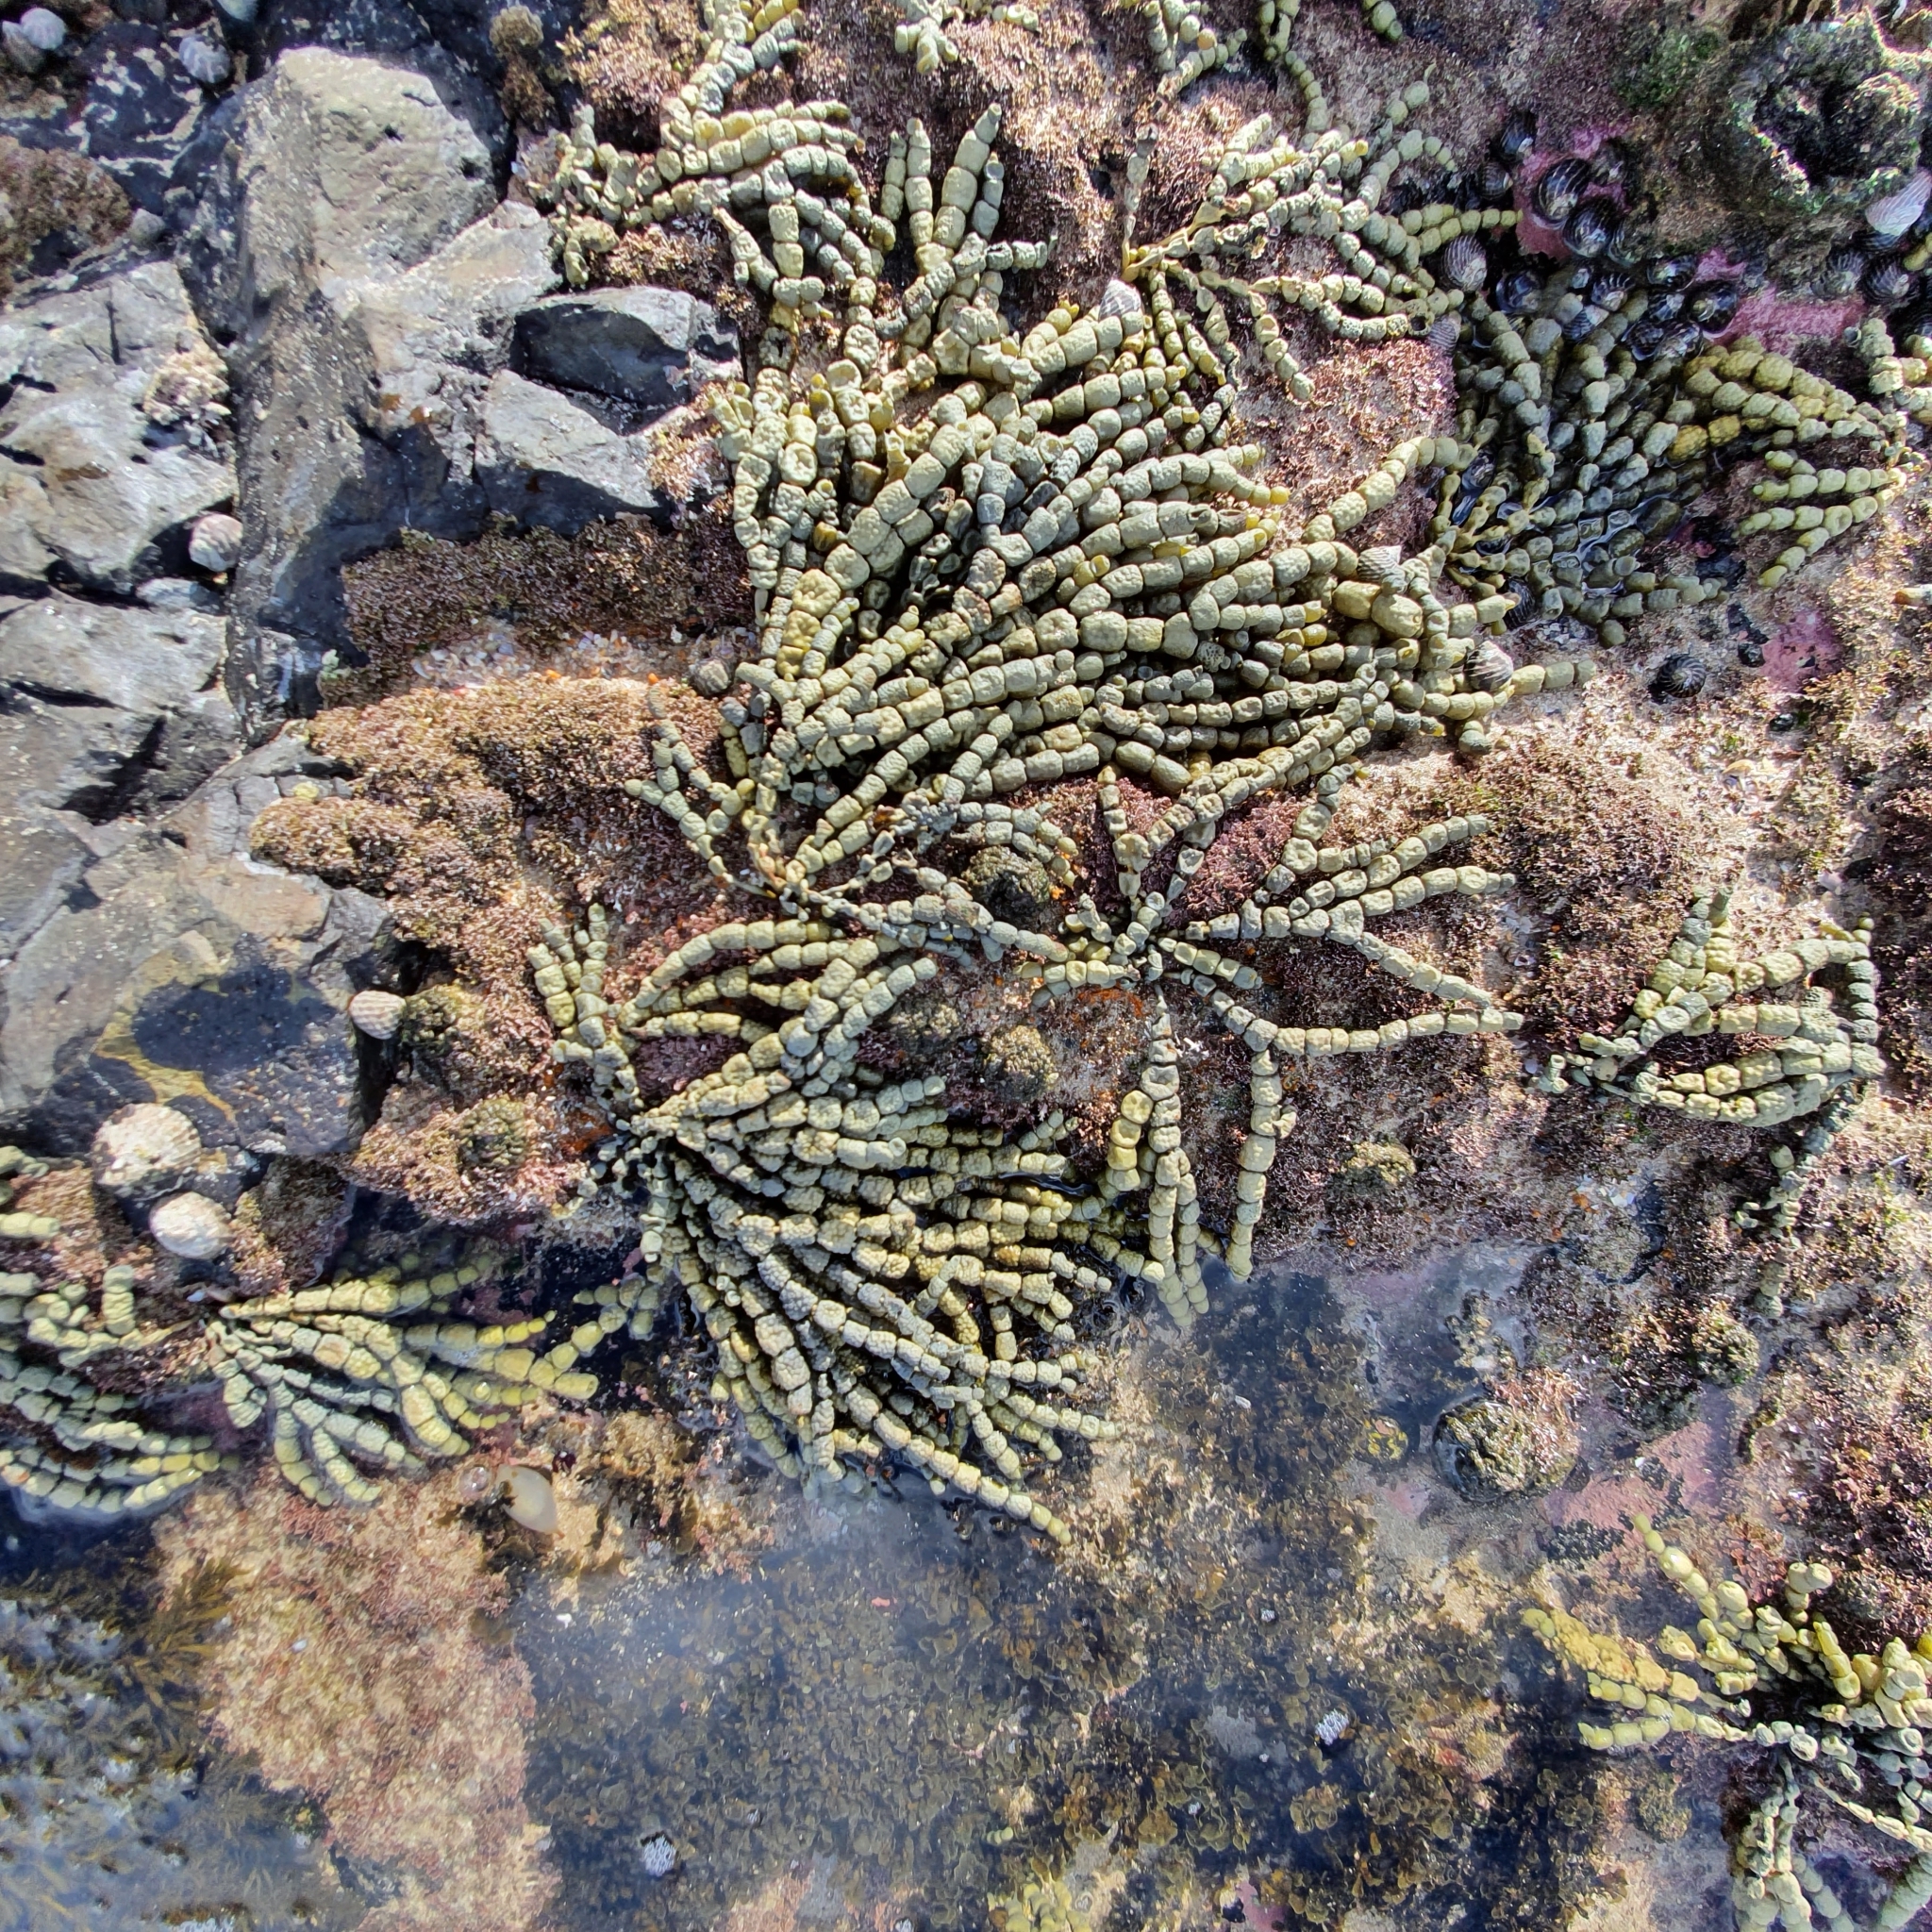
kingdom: Chromista
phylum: Ochrophyta
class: Phaeophyceae
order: Fucales
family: Hormosiraceae
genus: Hormosira
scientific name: Hormosira banksii
